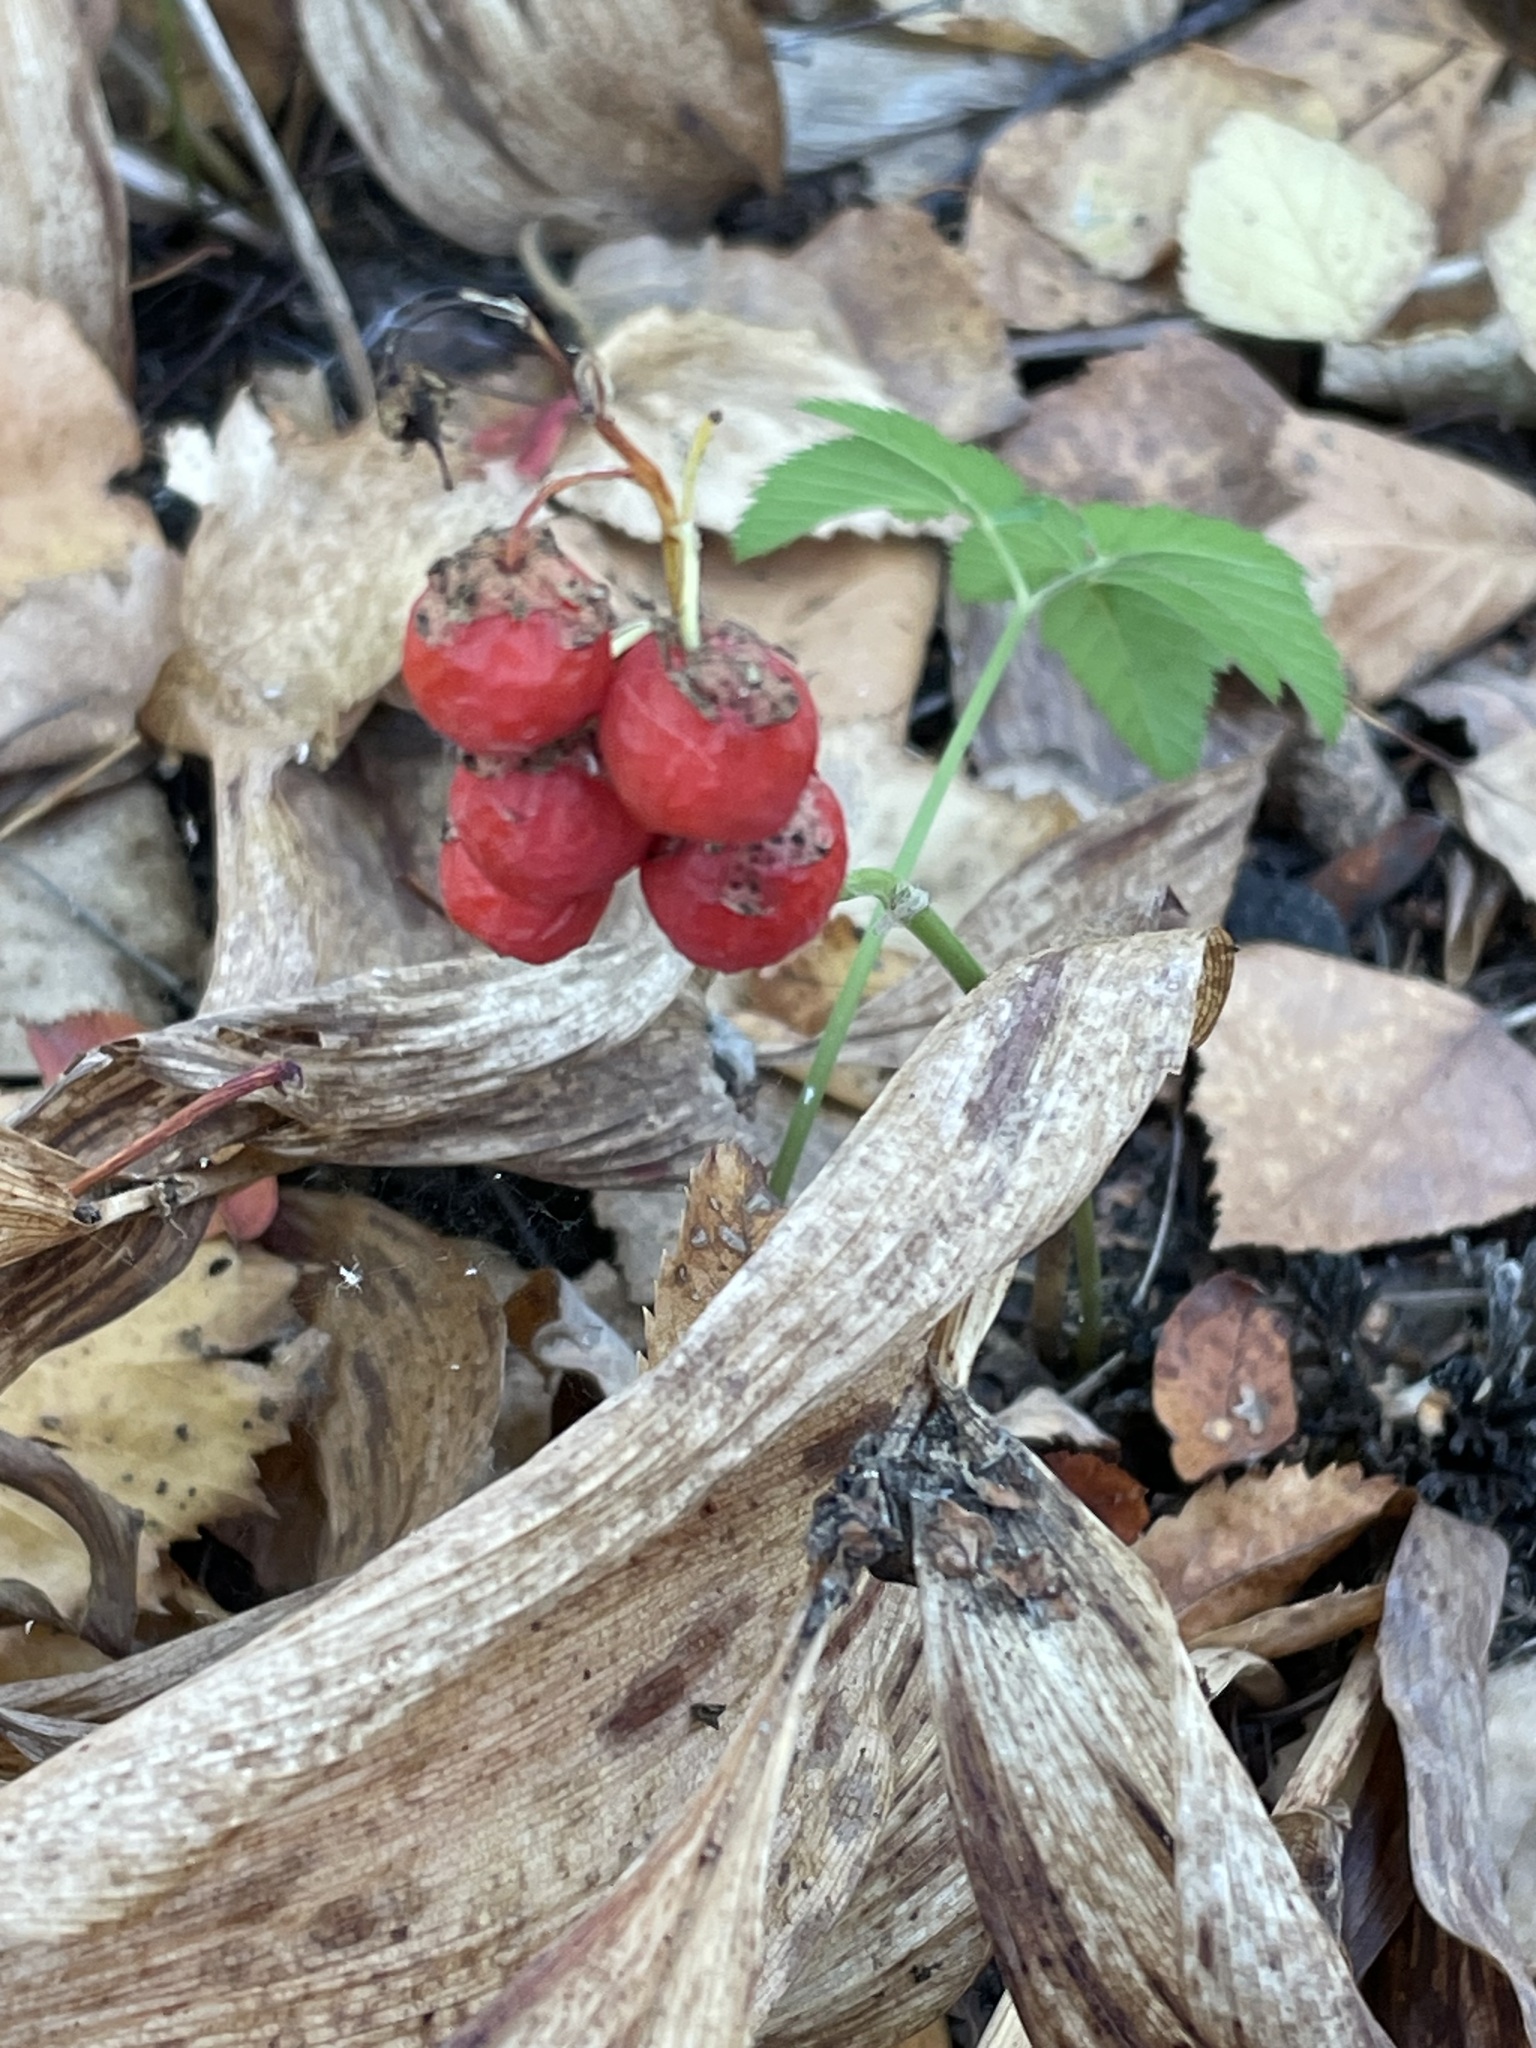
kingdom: Plantae
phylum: Tracheophyta
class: Liliopsida
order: Asparagales
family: Asparagaceae
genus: Convallaria
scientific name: Convallaria majalis
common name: Lily-of-the-valley
